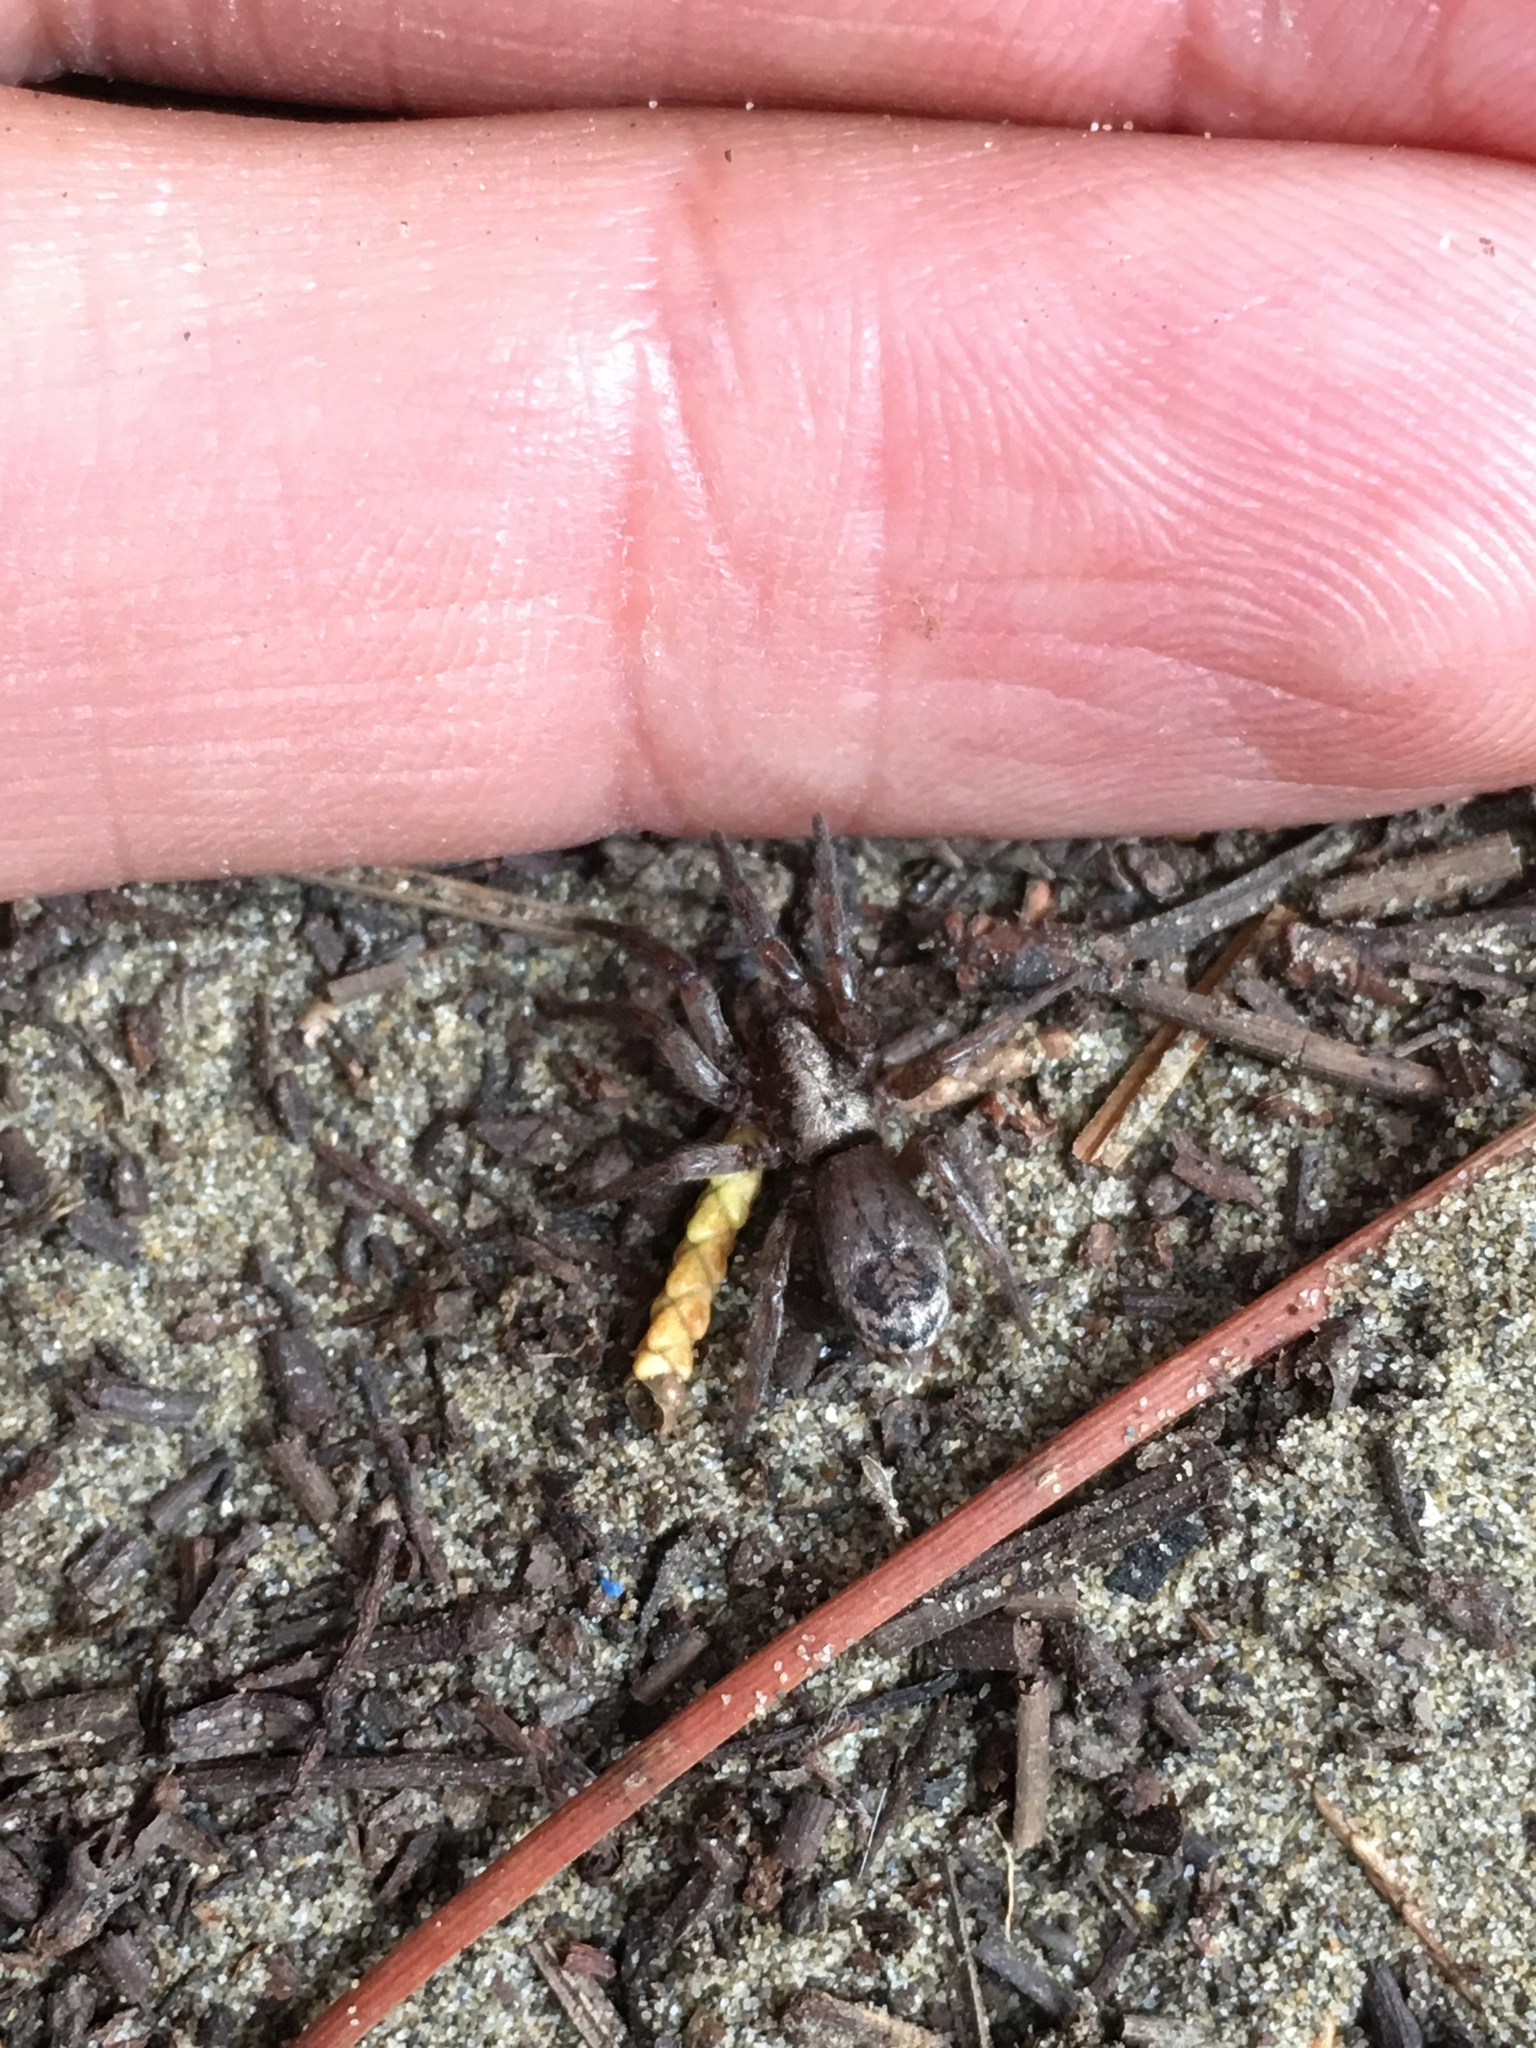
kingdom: Animalia
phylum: Arthropoda
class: Arachnida
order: Araneae
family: Gnaphosidae
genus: Scotophaeus
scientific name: Scotophaeus pretiosus
